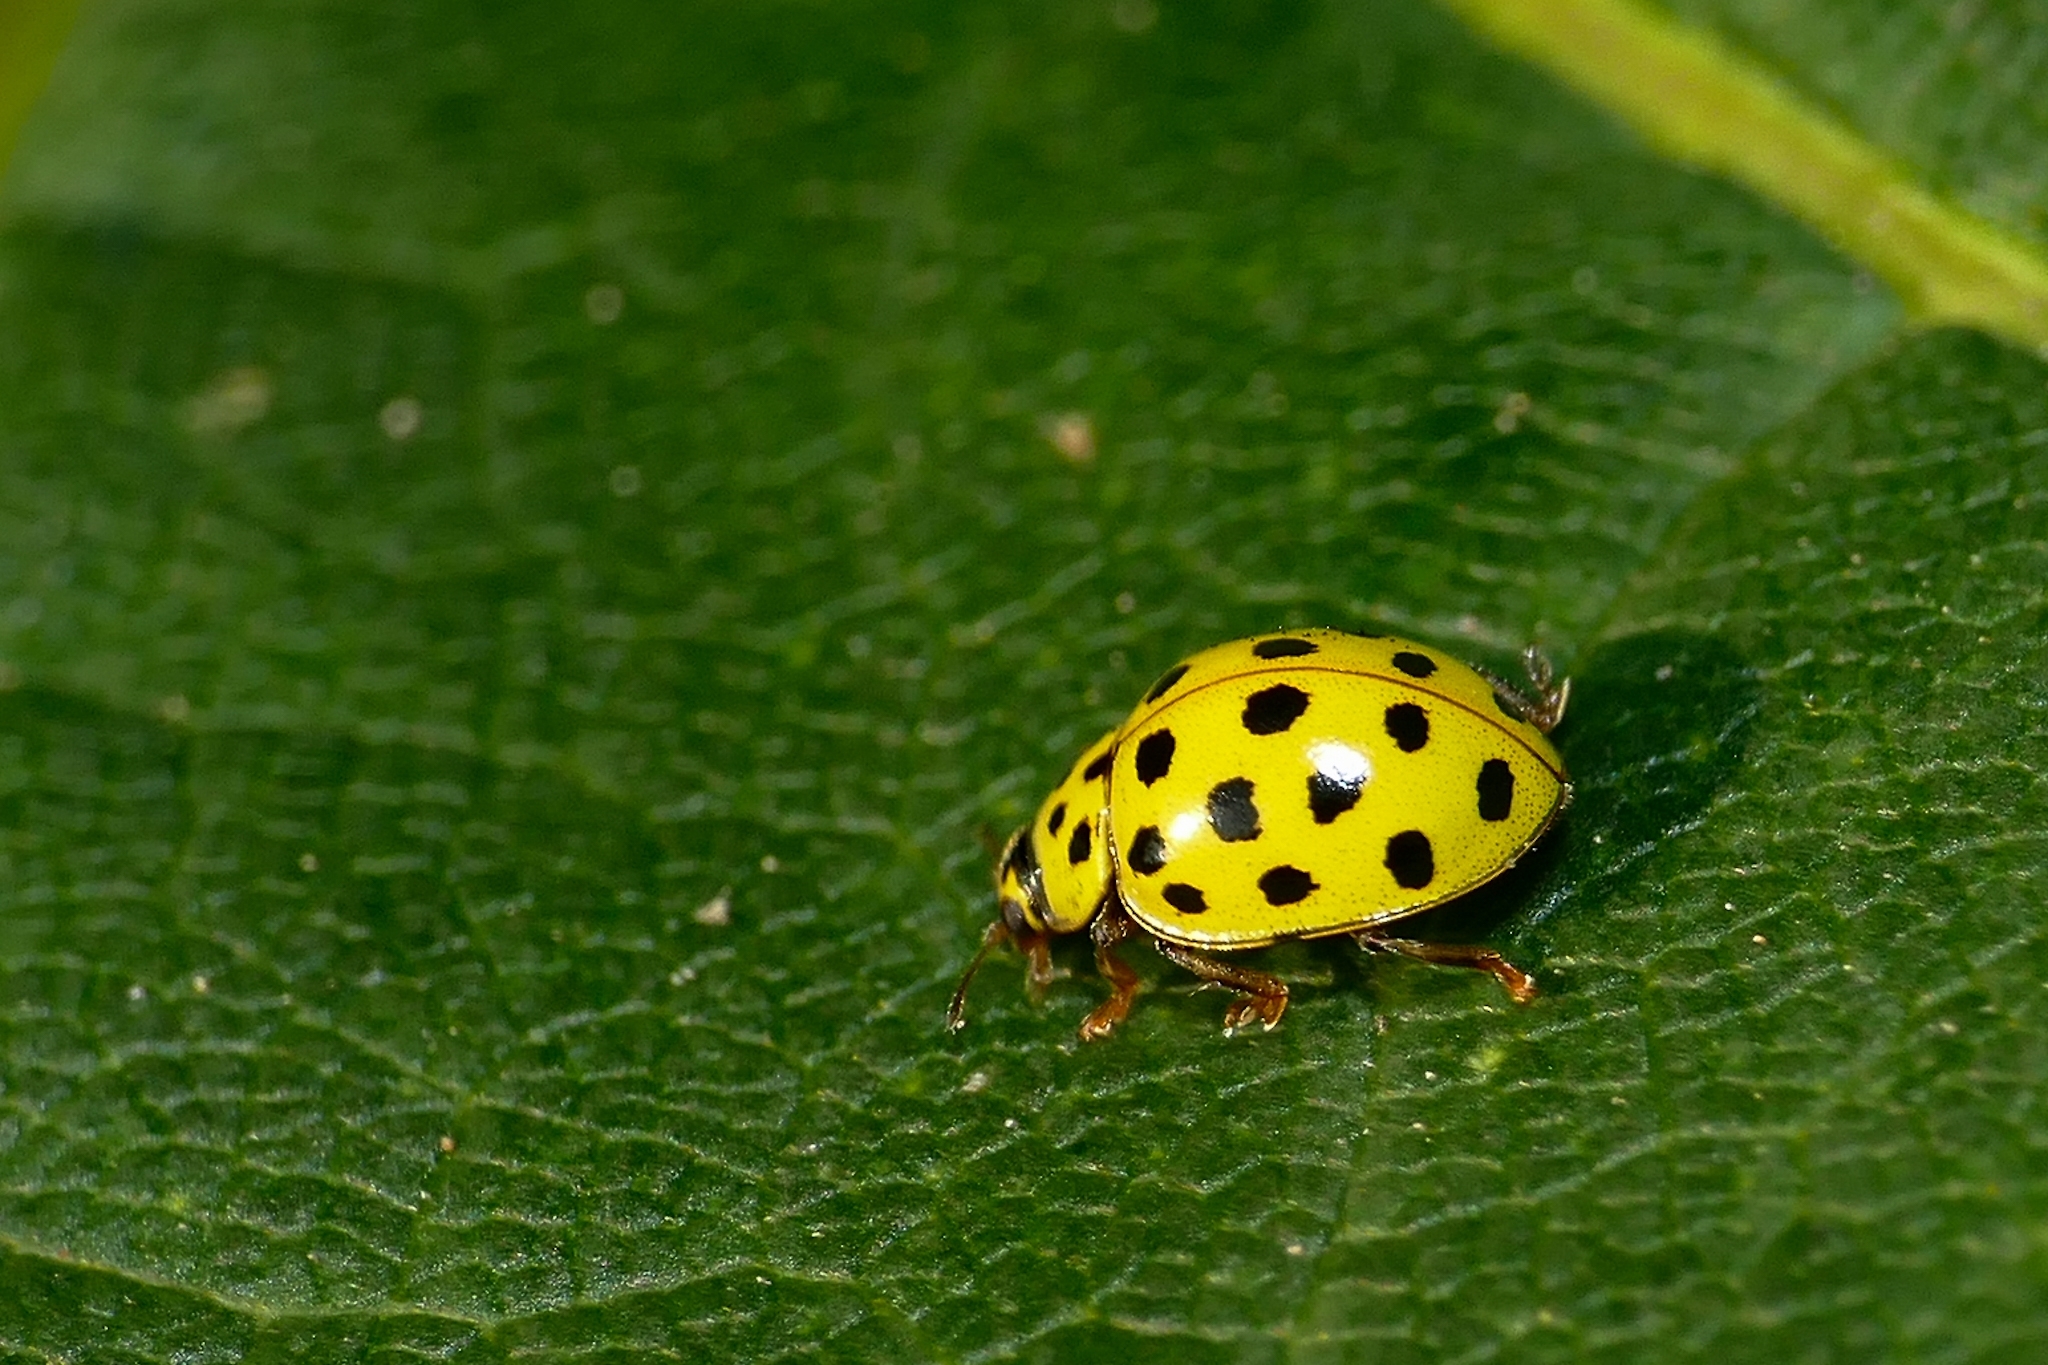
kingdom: Animalia
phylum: Arthropoda
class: Insecta
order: Coleoptera
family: Coccinellidae
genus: Psyllobora
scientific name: Psyllobora vigintiduopunctata
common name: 22-spot ladybird
